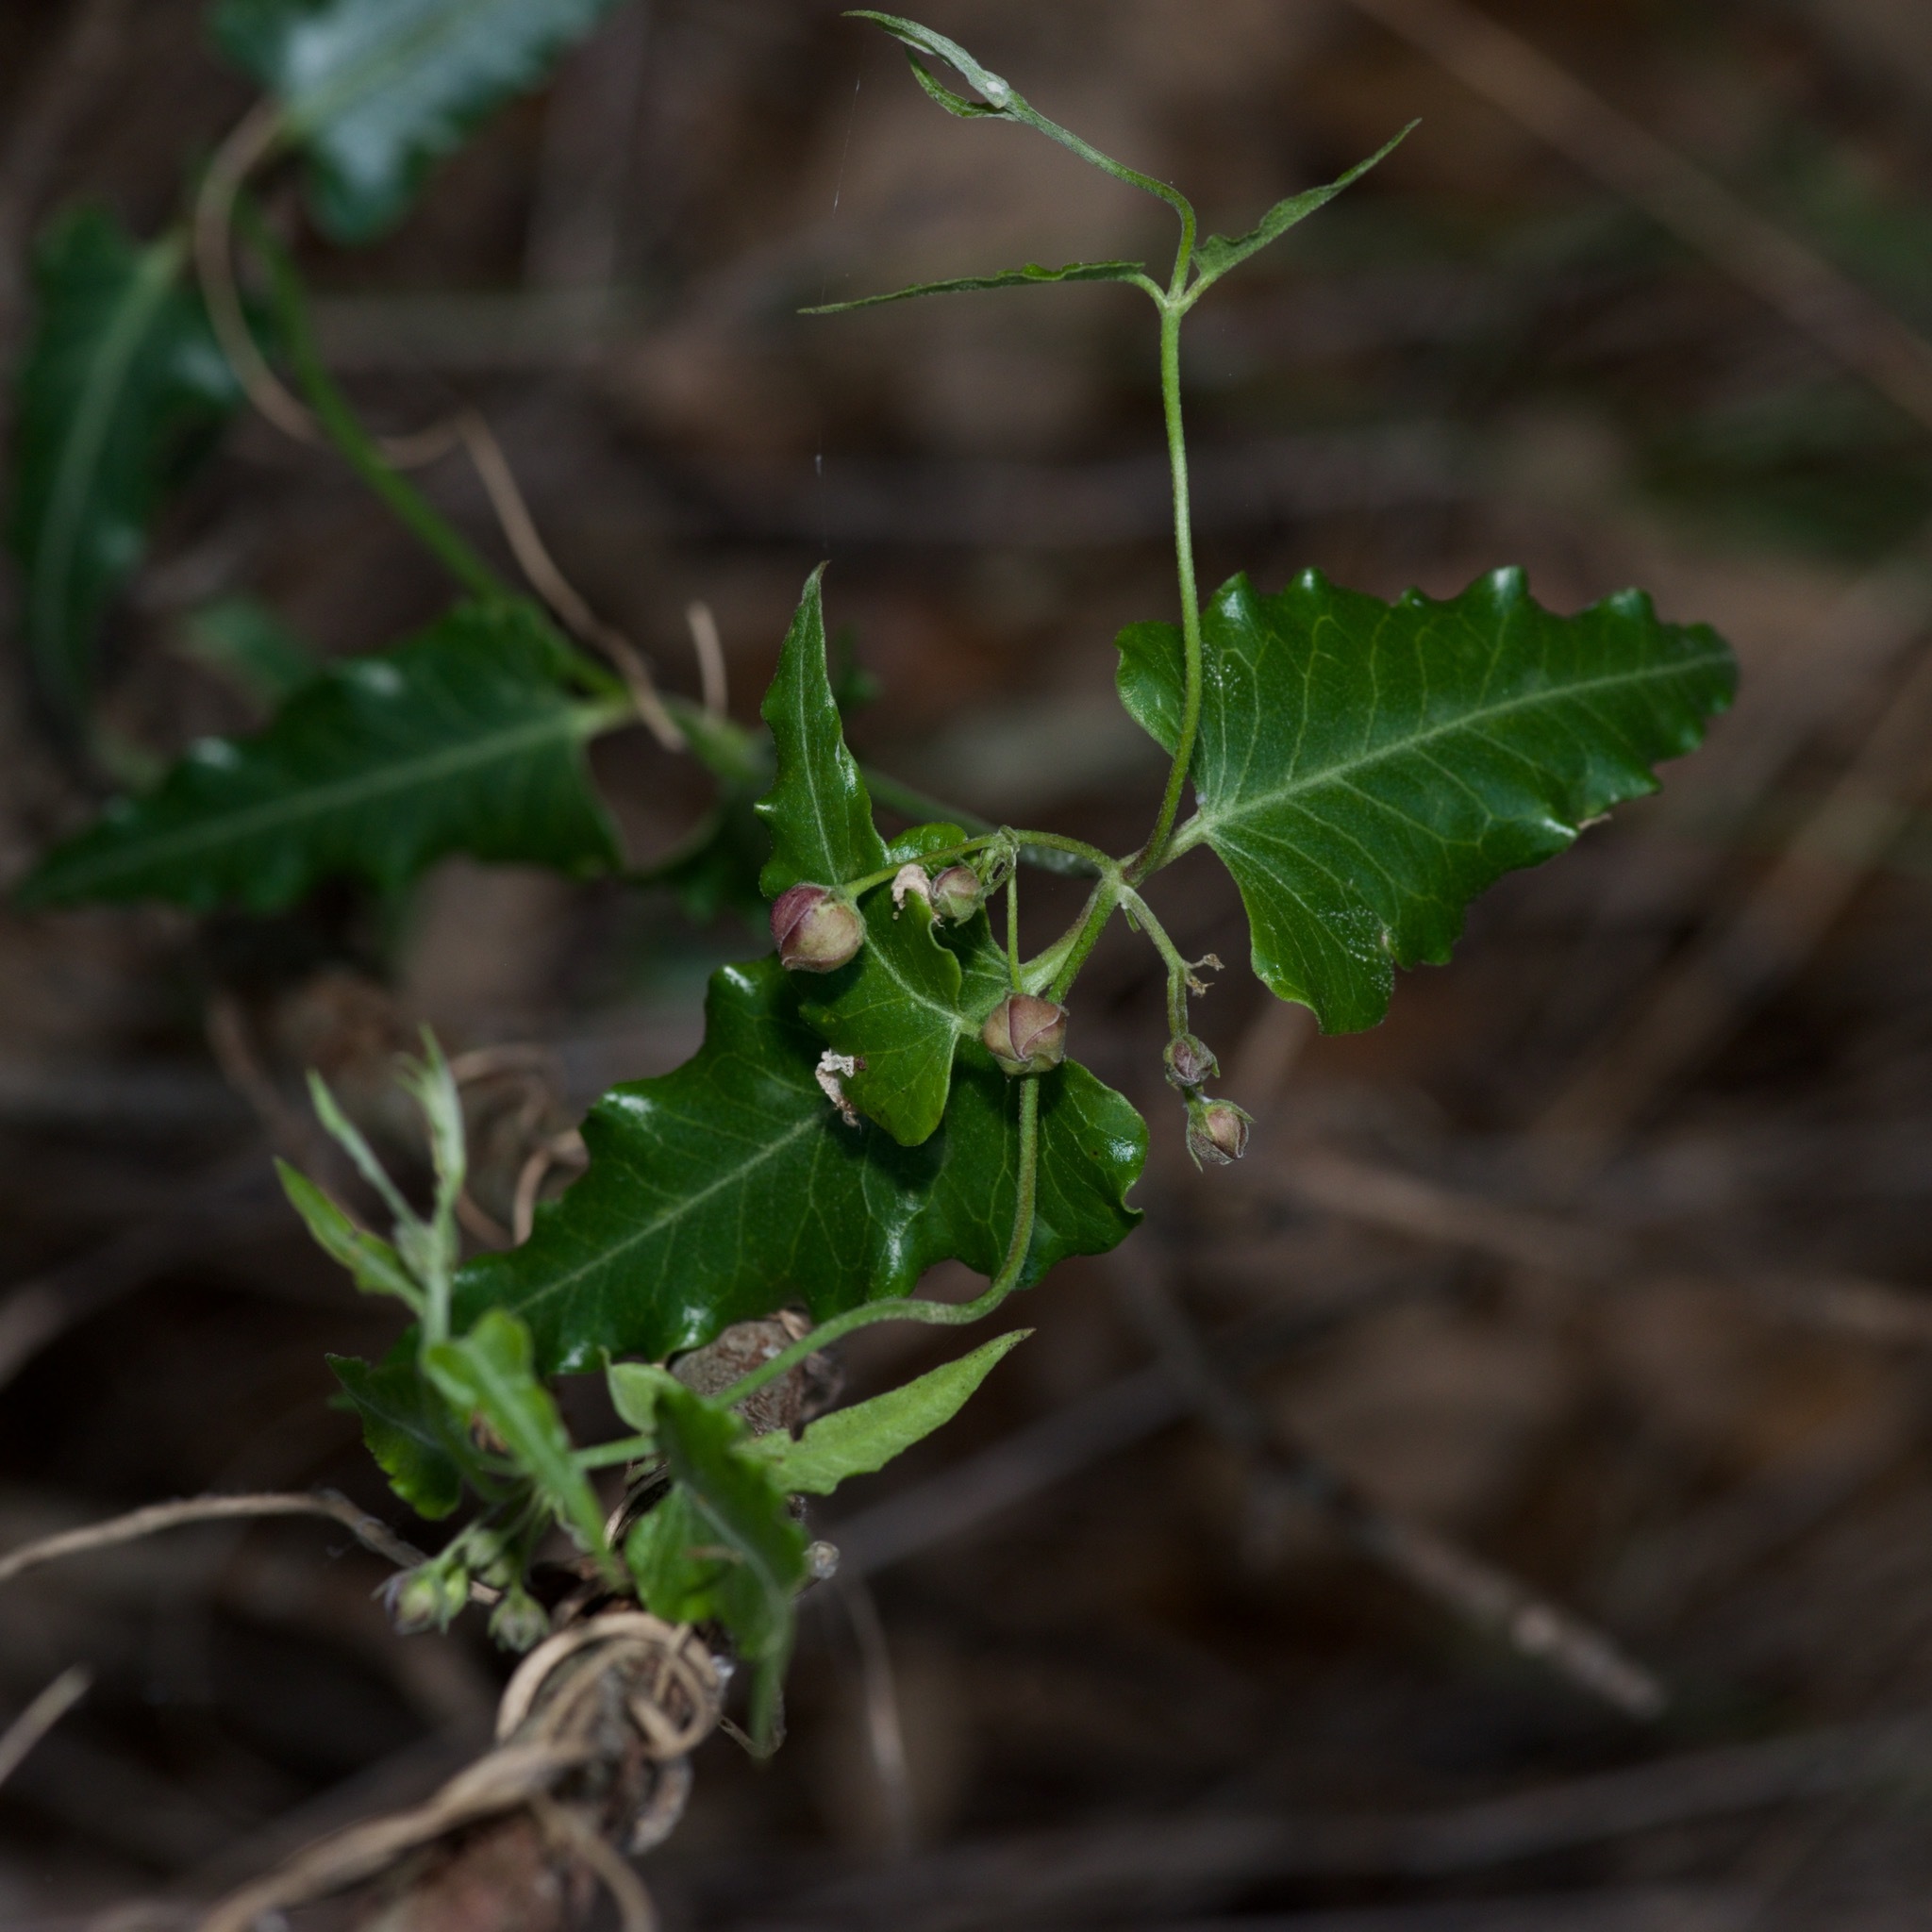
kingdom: Plantae
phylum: Tracheophyta
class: Magnoliopsida
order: Gentianales
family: Apocynaceae
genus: Funastrum
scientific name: Funastrum crispum
